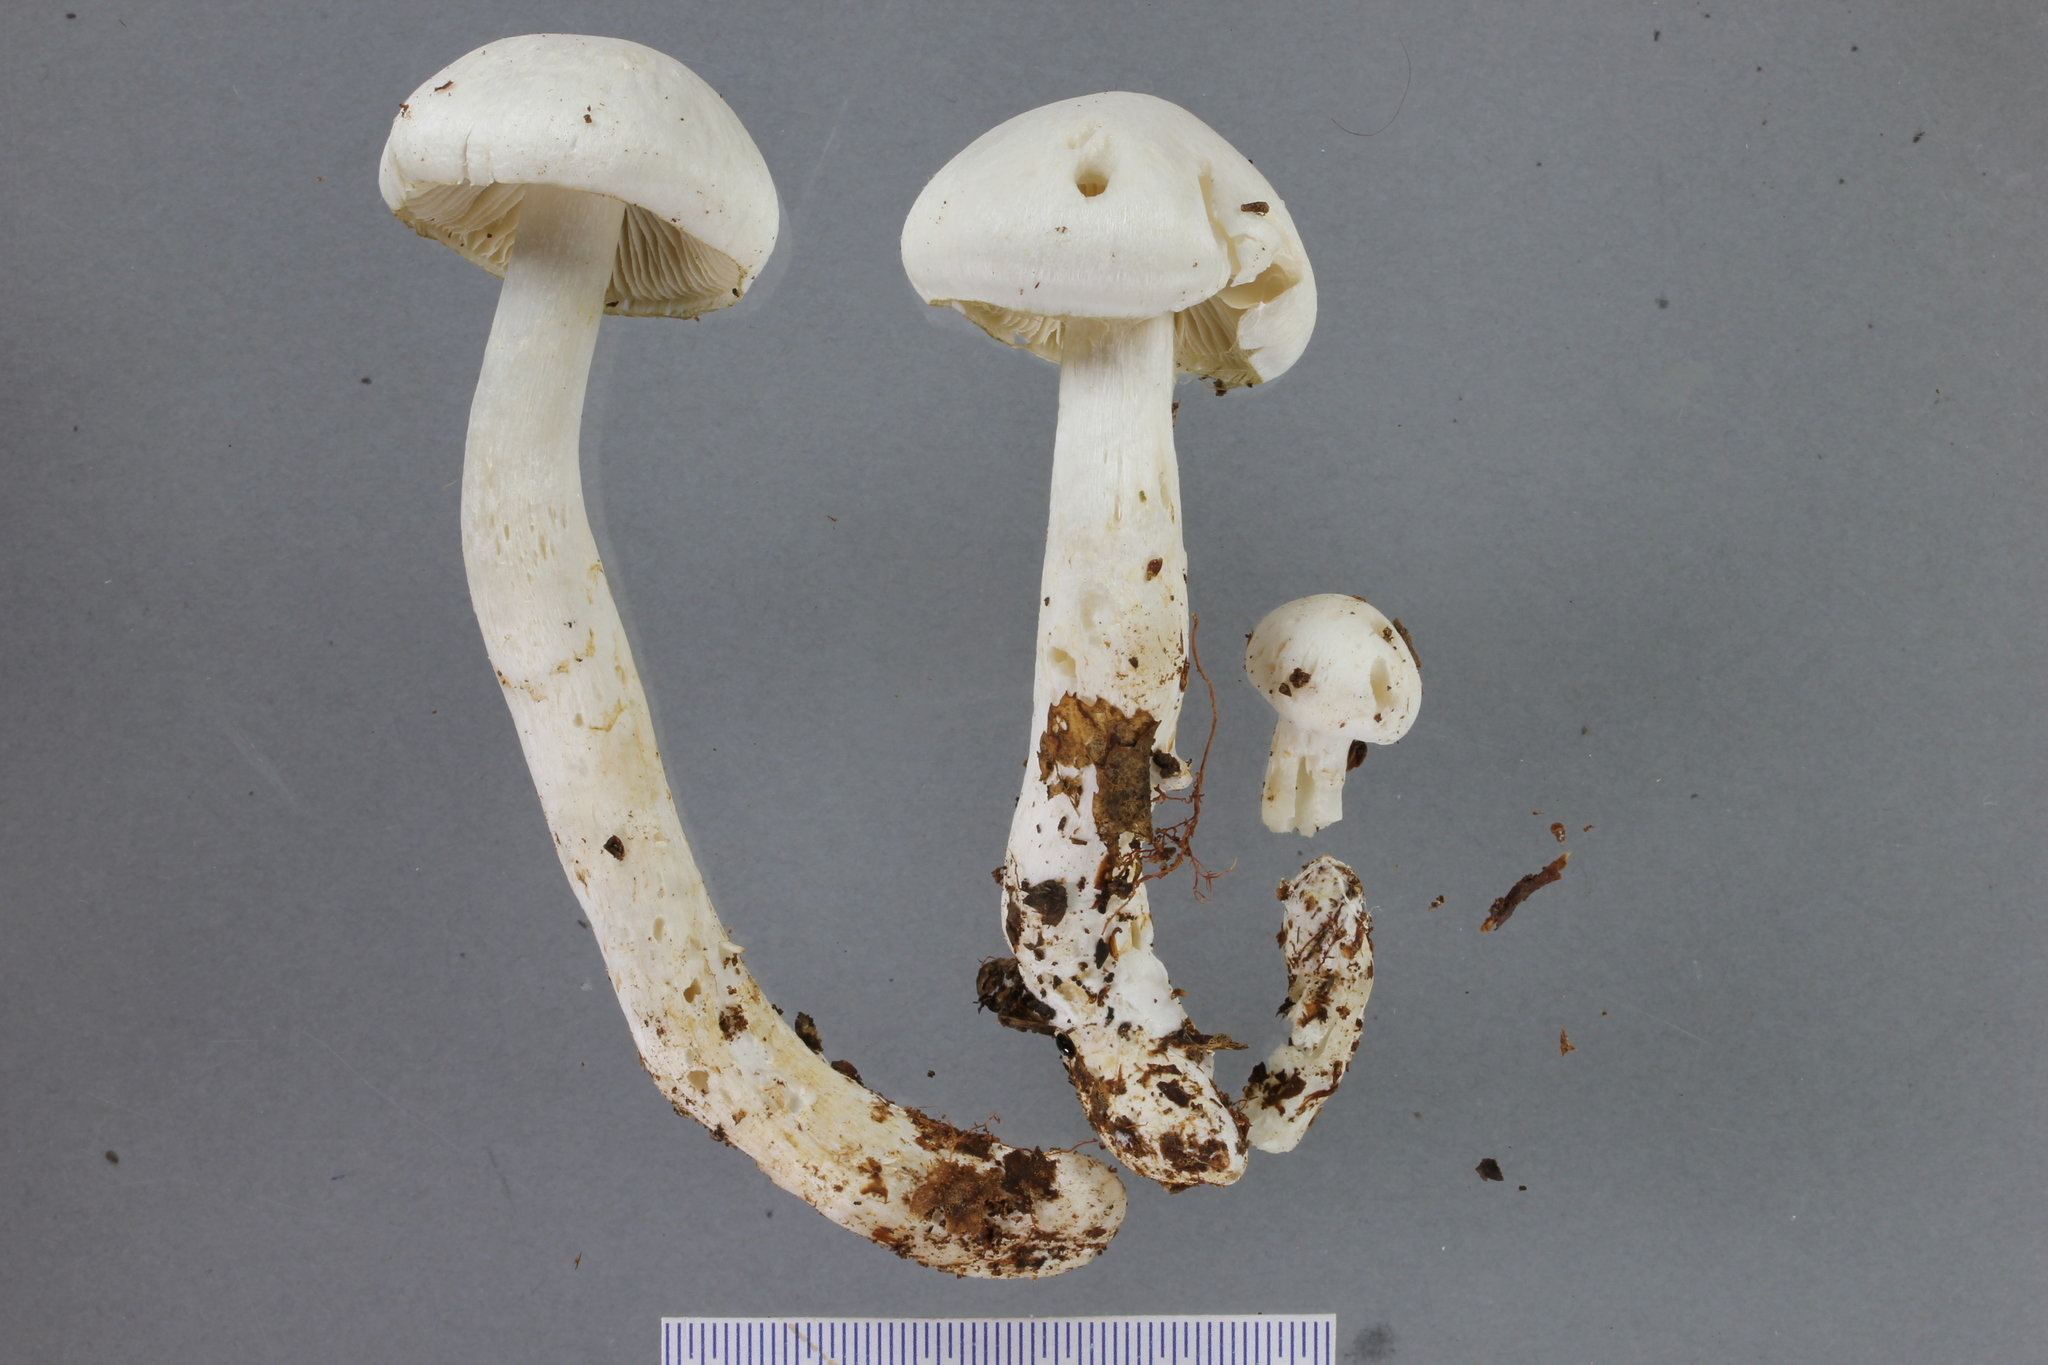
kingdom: Fungi
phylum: Basidiomycota
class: Agaricomycetes
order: Agaricales
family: Cortinariaceae
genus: Thaxterogaster
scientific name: Thaxterogaster mariae
